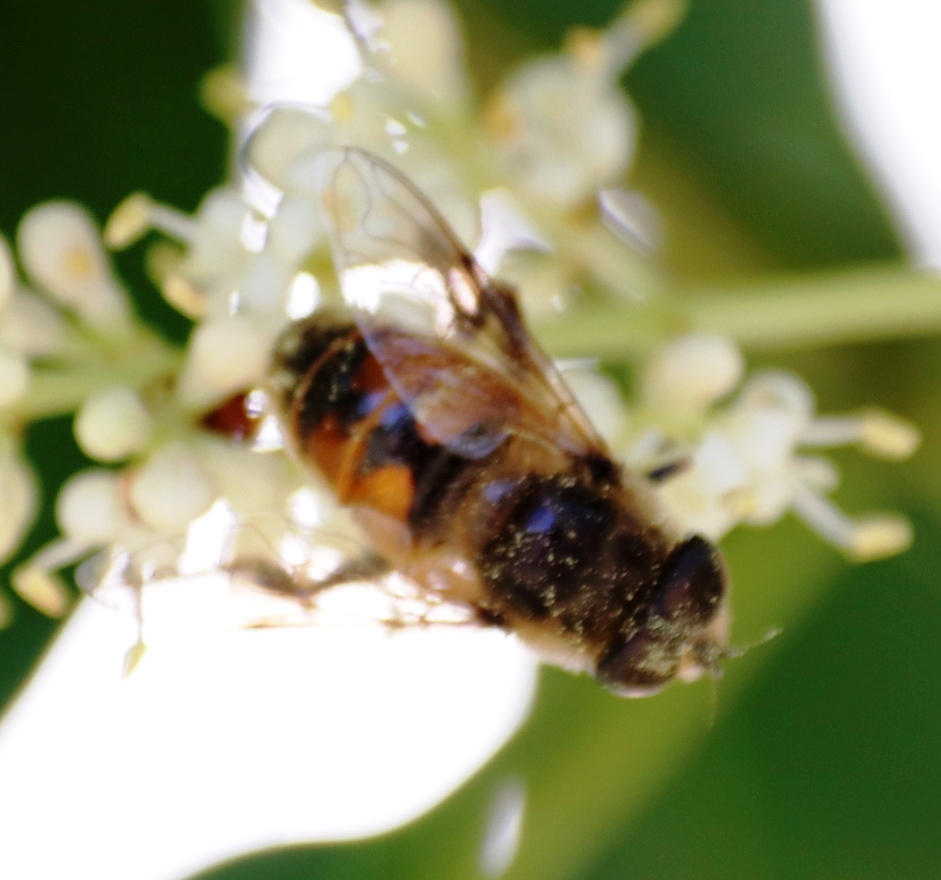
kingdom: Animalia
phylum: Arthropoda
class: Insecta
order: Diptera
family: Syrphidae
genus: Eristalis
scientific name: Eristalis tenax
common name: Drone fly
